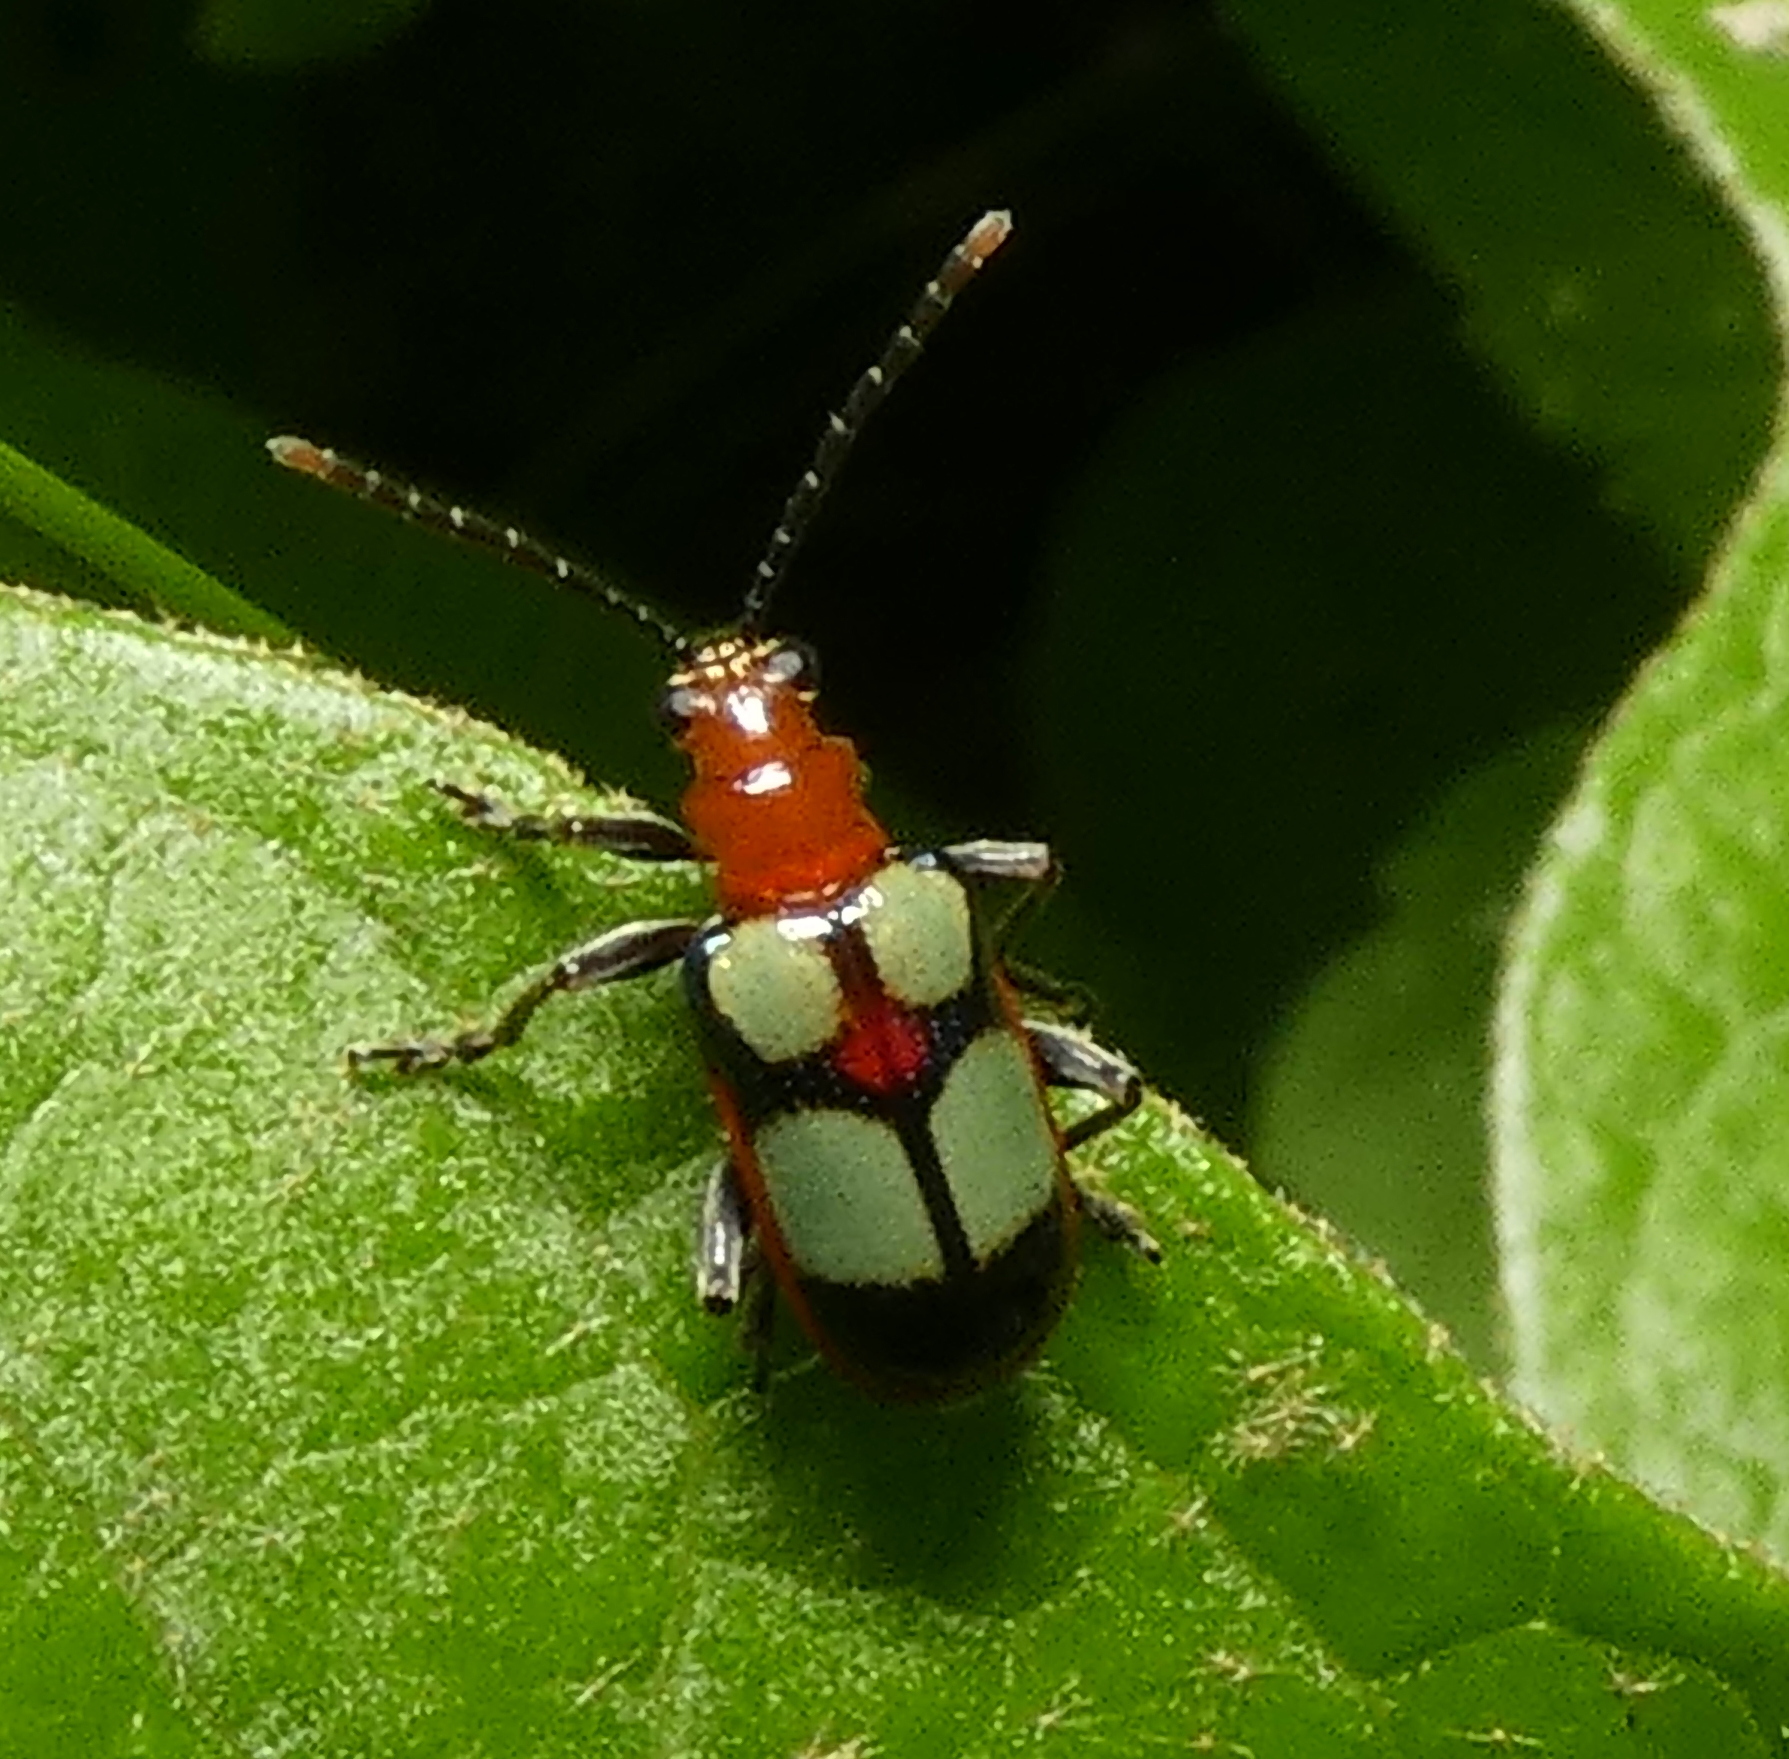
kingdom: Animalia
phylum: Arthropoda
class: Insecta
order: Coleoptera
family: Chrysomelidae
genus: Neolema
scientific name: Neolema
